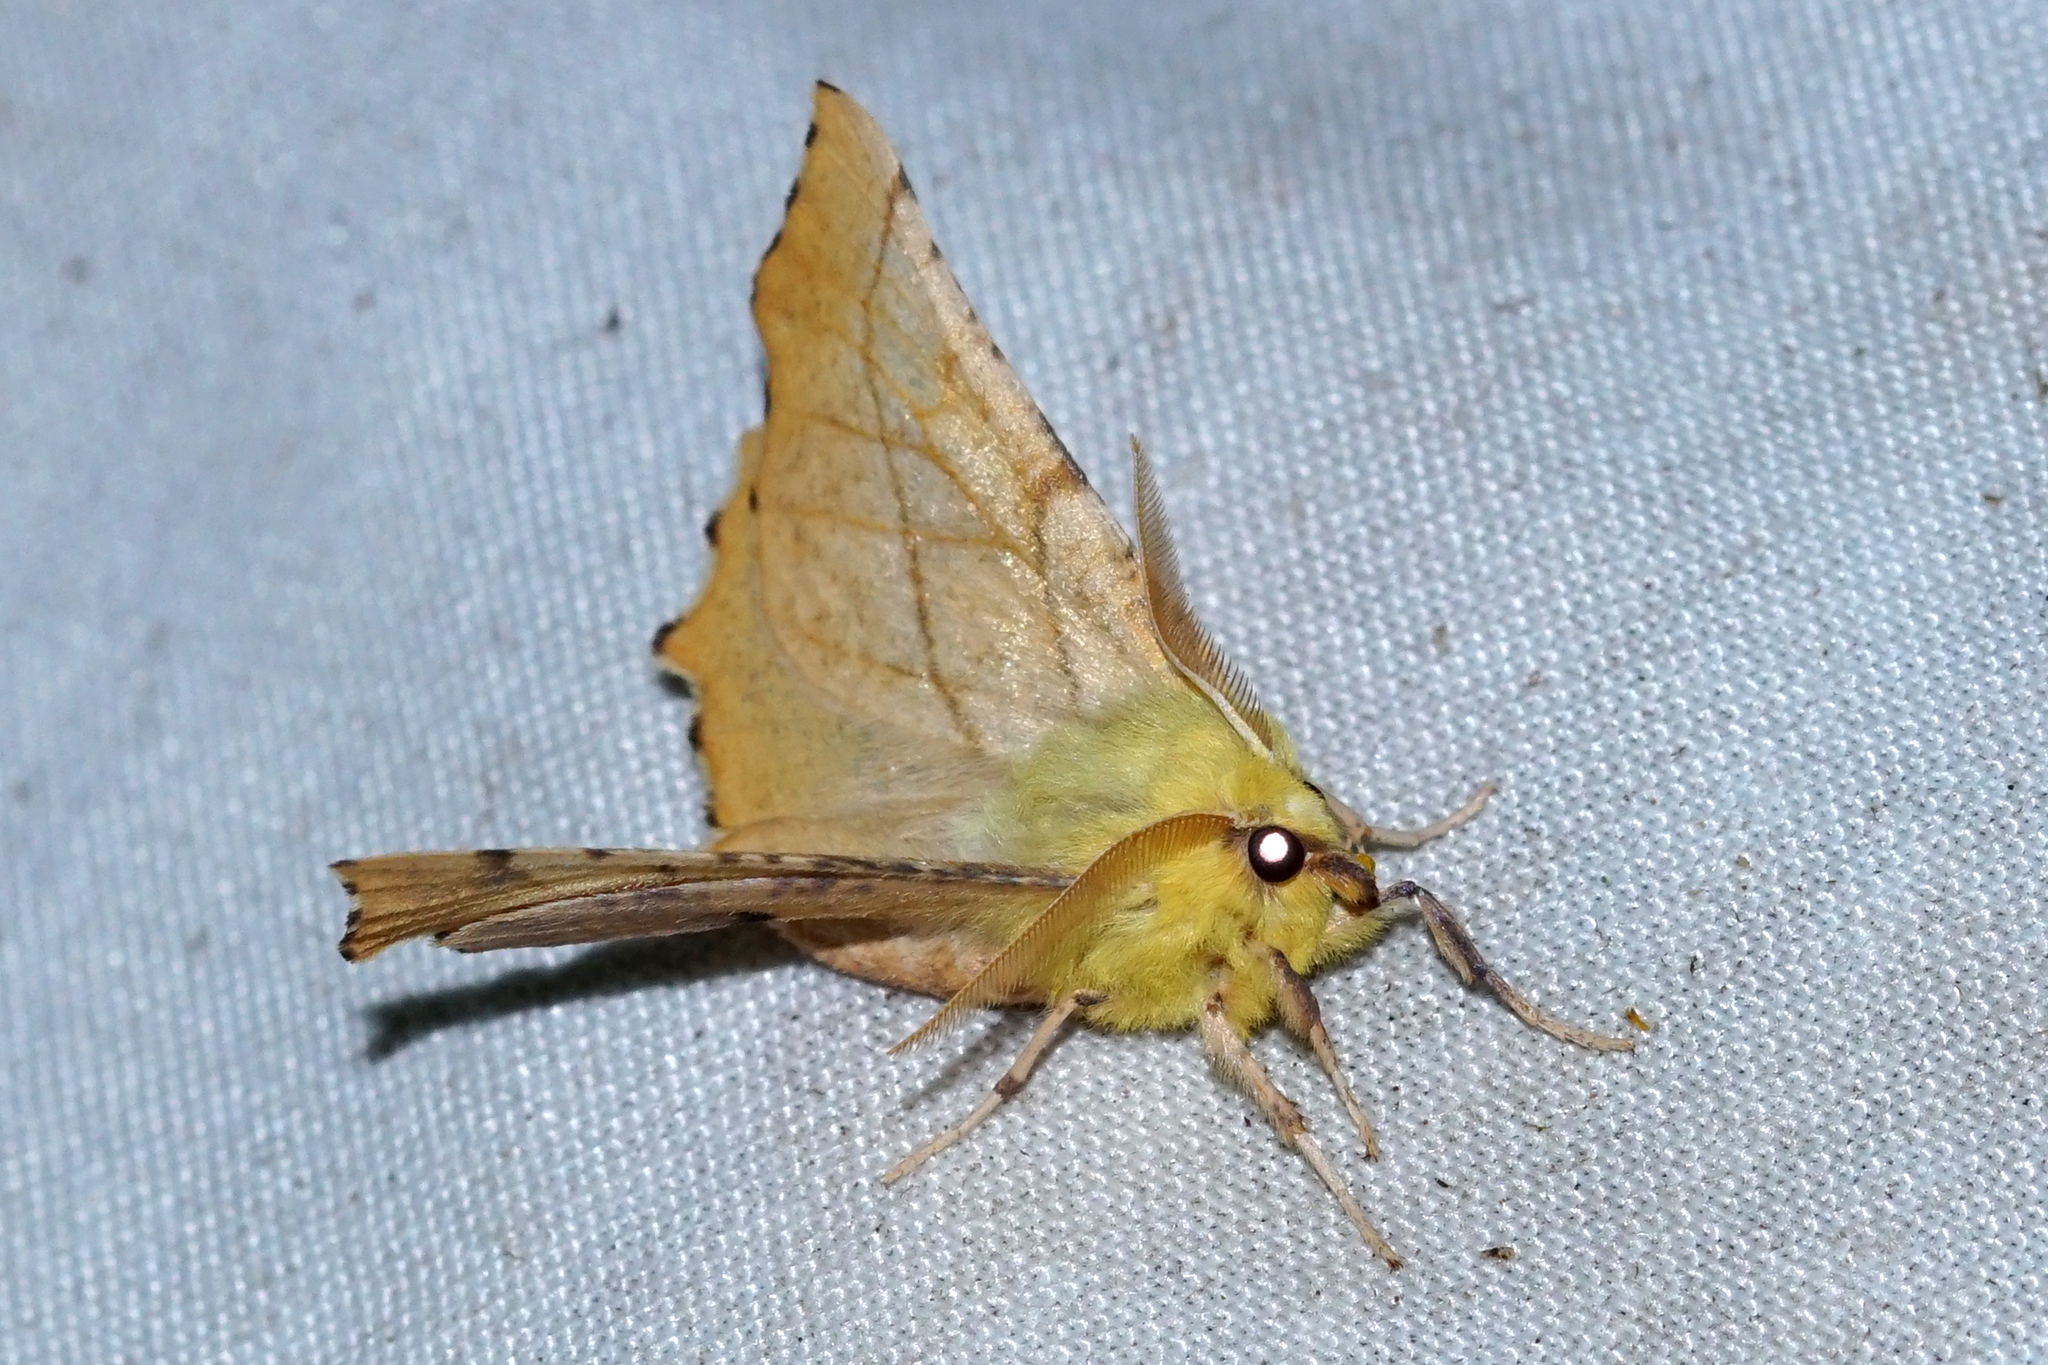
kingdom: Animalia
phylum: Arthropoda
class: Insecta
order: Lepidoptera
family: Geometridae
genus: Ennomos
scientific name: Ennomos alniaria
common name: Canary-shouldered thorn
